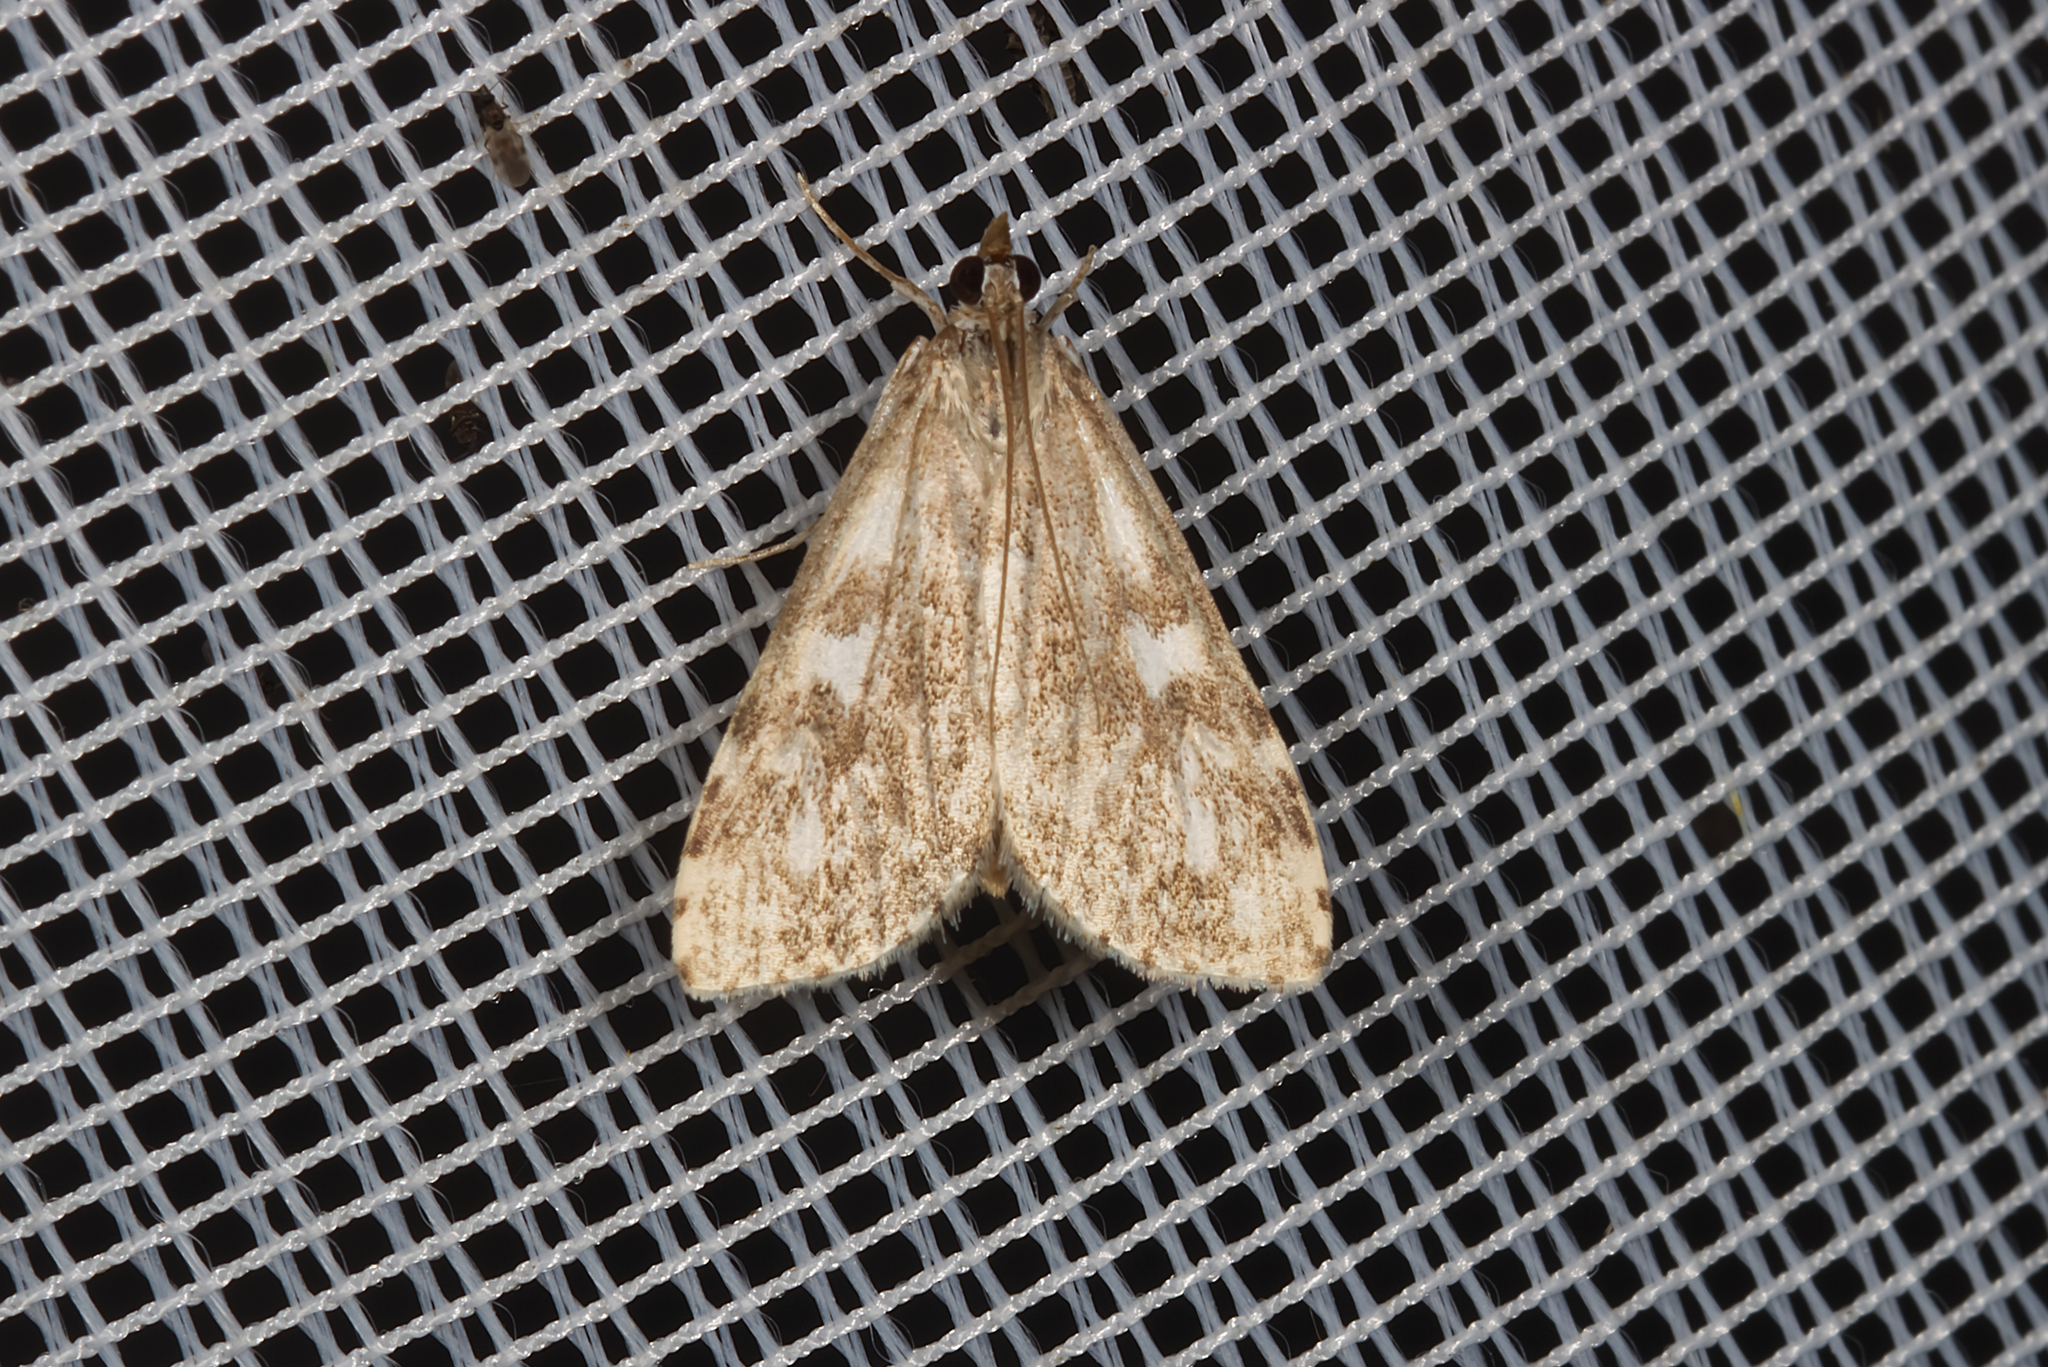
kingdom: Animalia
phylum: Arthropoda
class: Insecta
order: Lepidoptera
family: Crambidae
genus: Udea
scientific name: Udea olivalis
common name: Olive pearl
